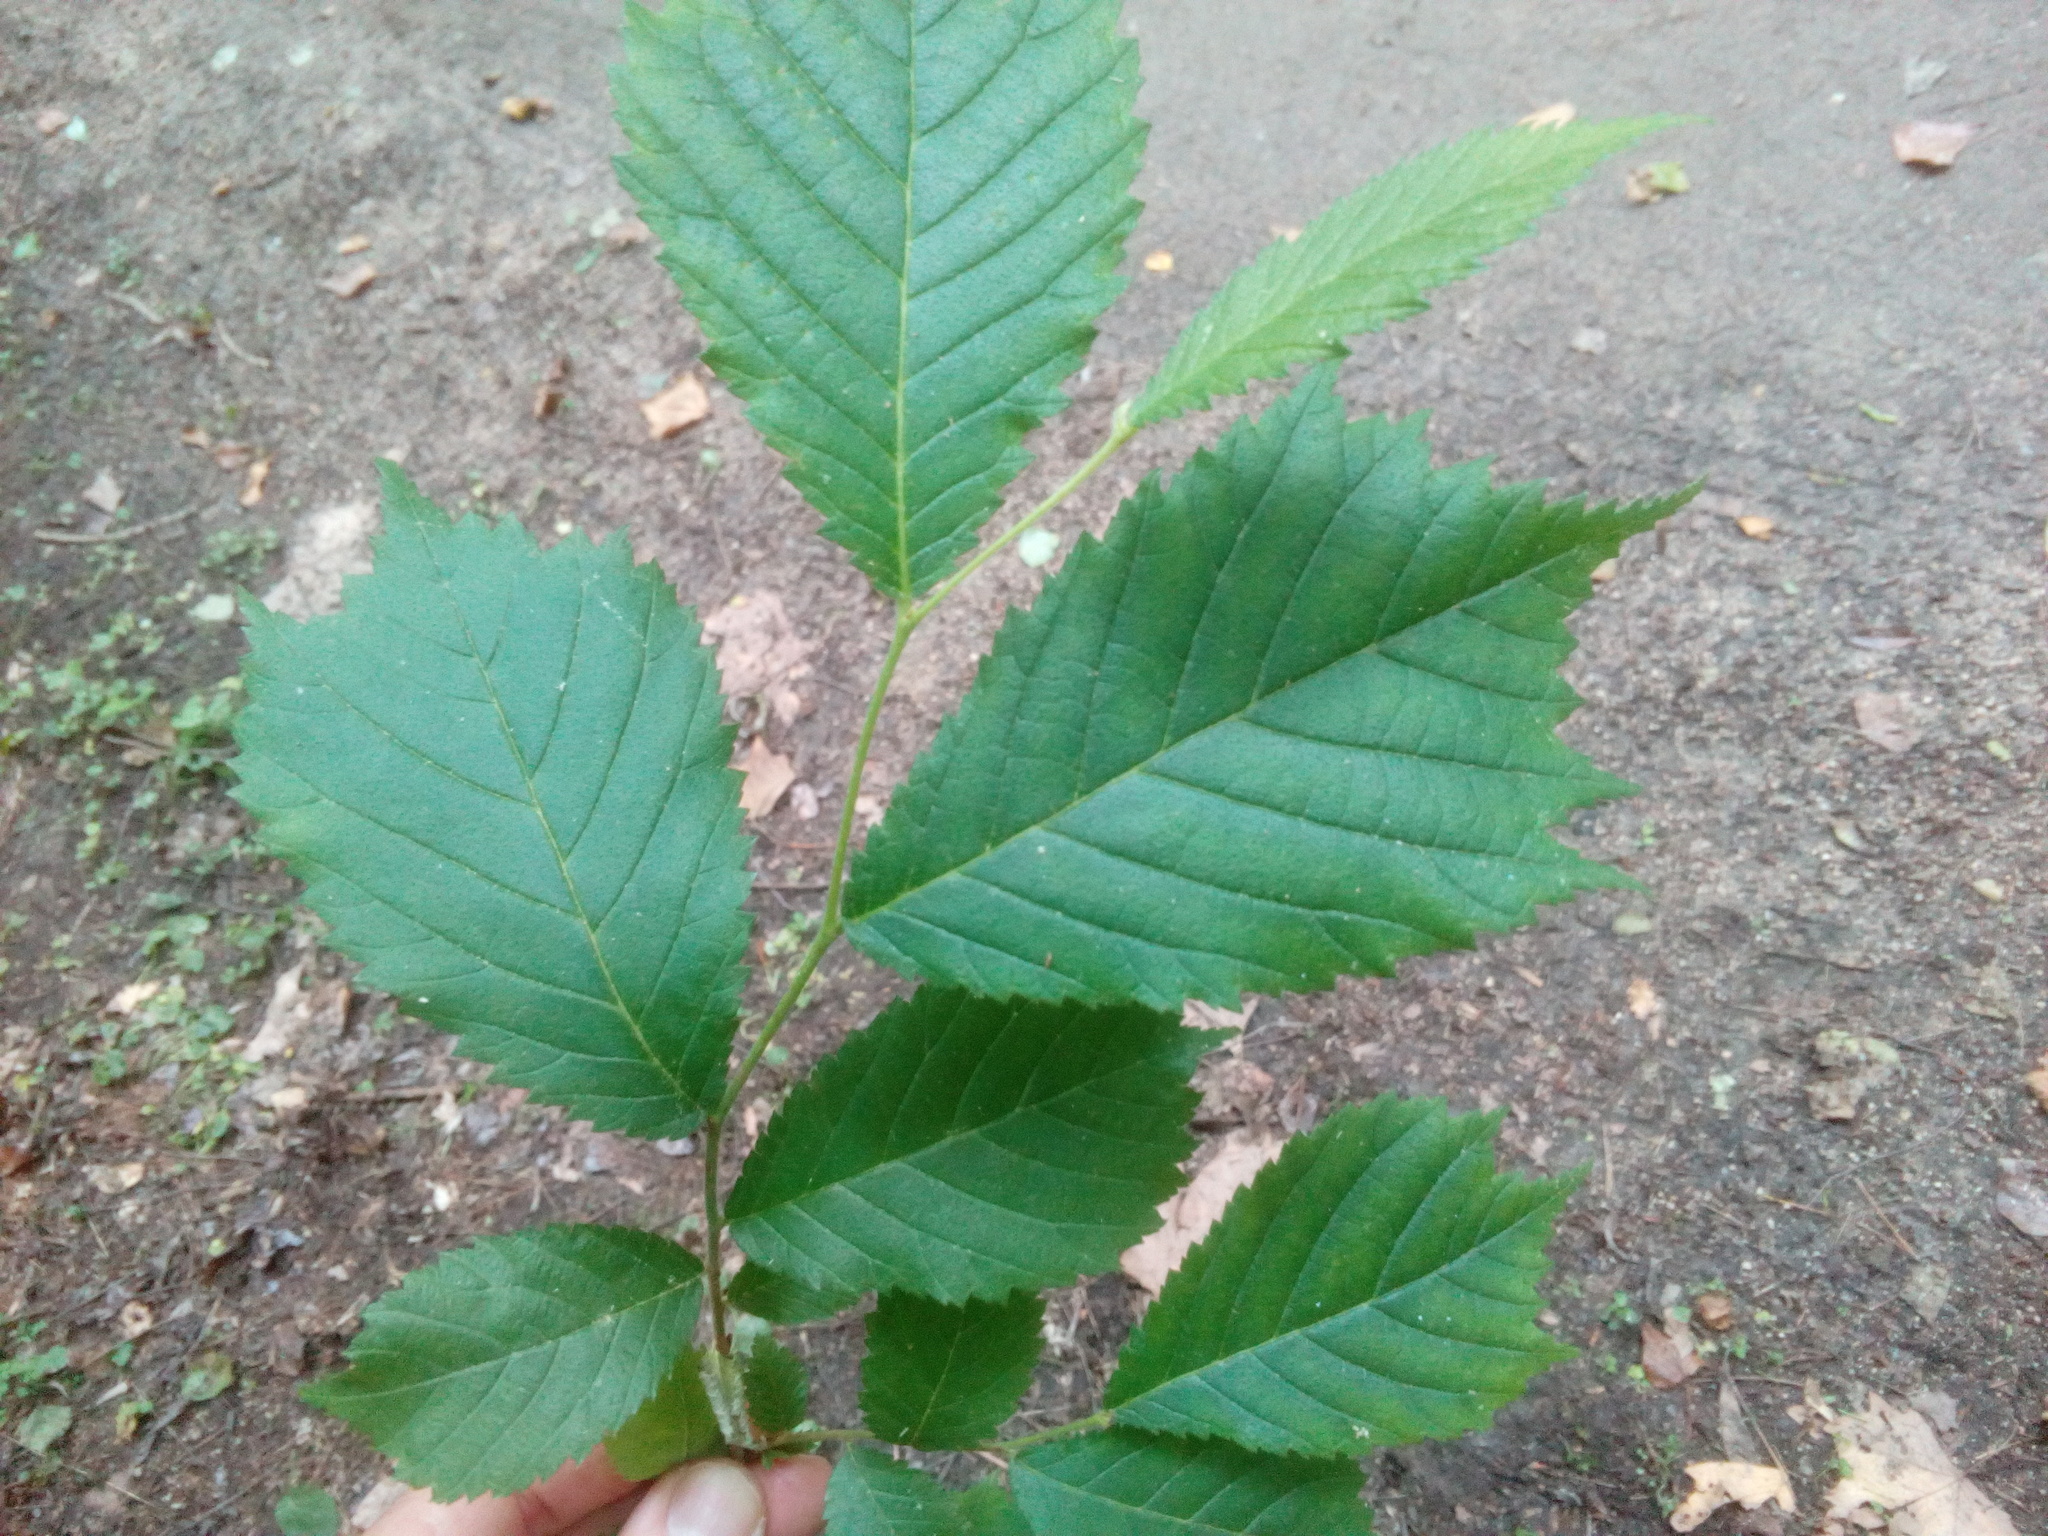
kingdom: Plantae
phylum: Tracheophyta
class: Magnoliopsida
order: Rosales
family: Ulmaceae
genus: Ulmus
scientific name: Ulmus glabra
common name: Wych elm
